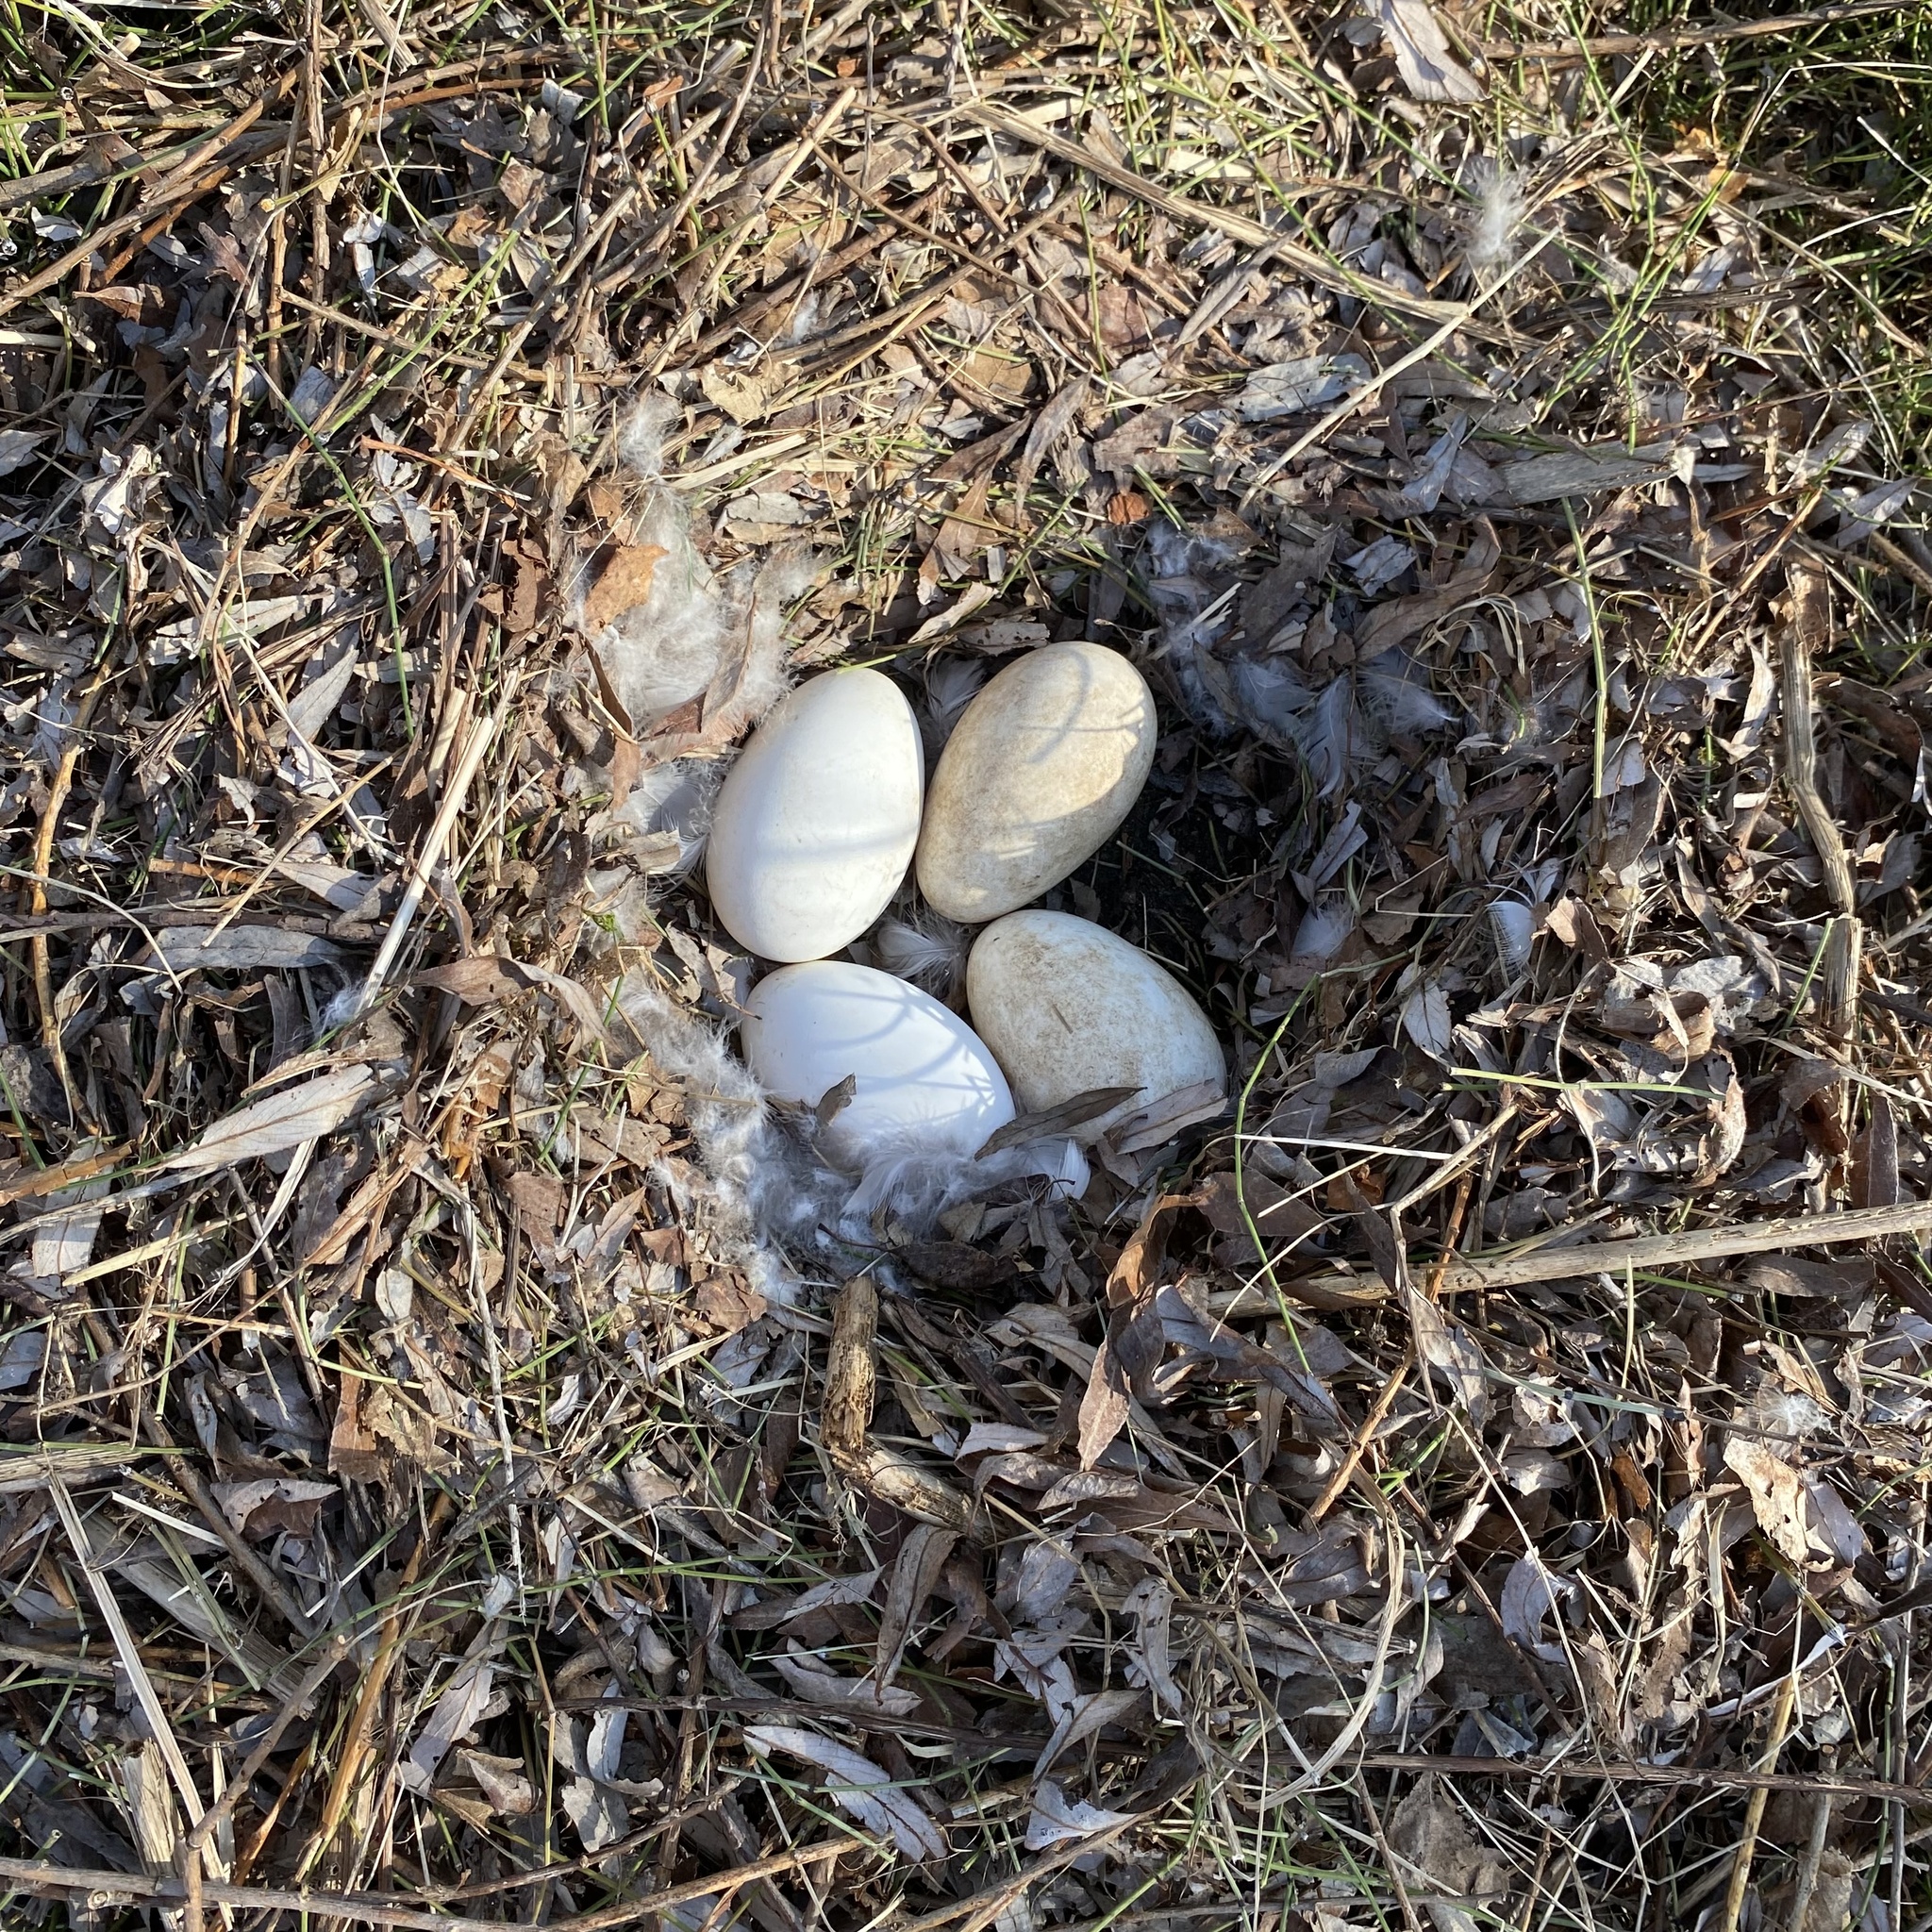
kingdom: Animalia
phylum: Chordata
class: Aves
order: Anseriformes
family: Anatidae
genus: Branta
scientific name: Branta canadensis
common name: Canada goose
